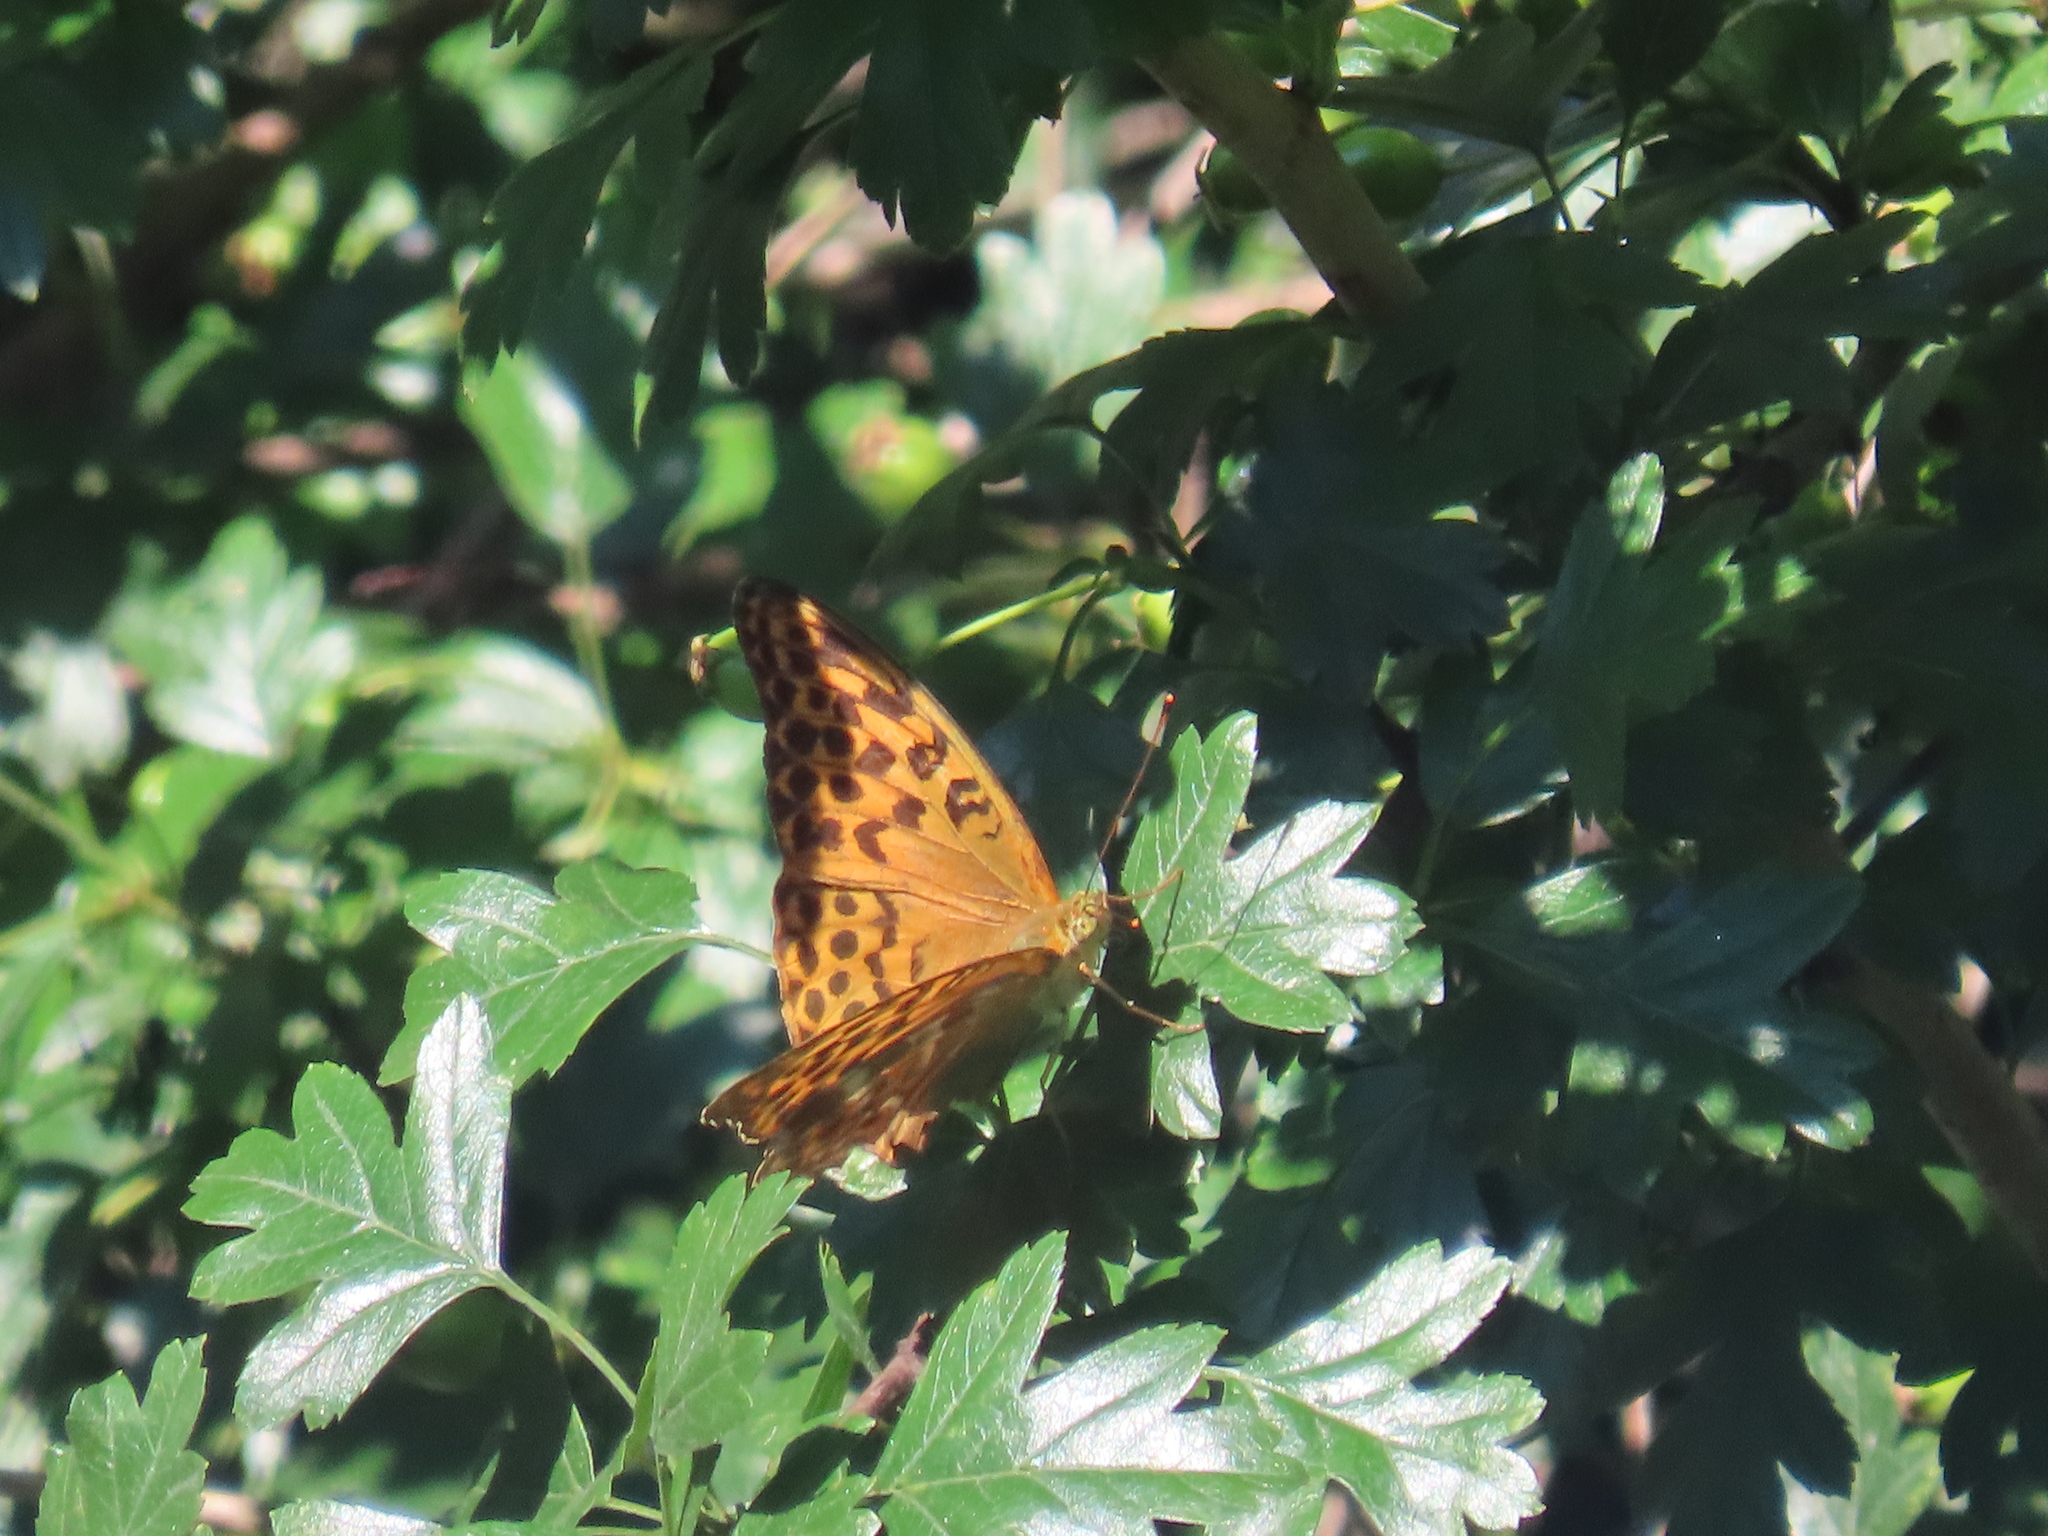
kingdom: Animalia
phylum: Arthropoda
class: Insecta
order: Lepidoptera
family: Nymphalidae
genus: Argynnis
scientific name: Argynnis paphia
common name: Silver-washed fritillary
